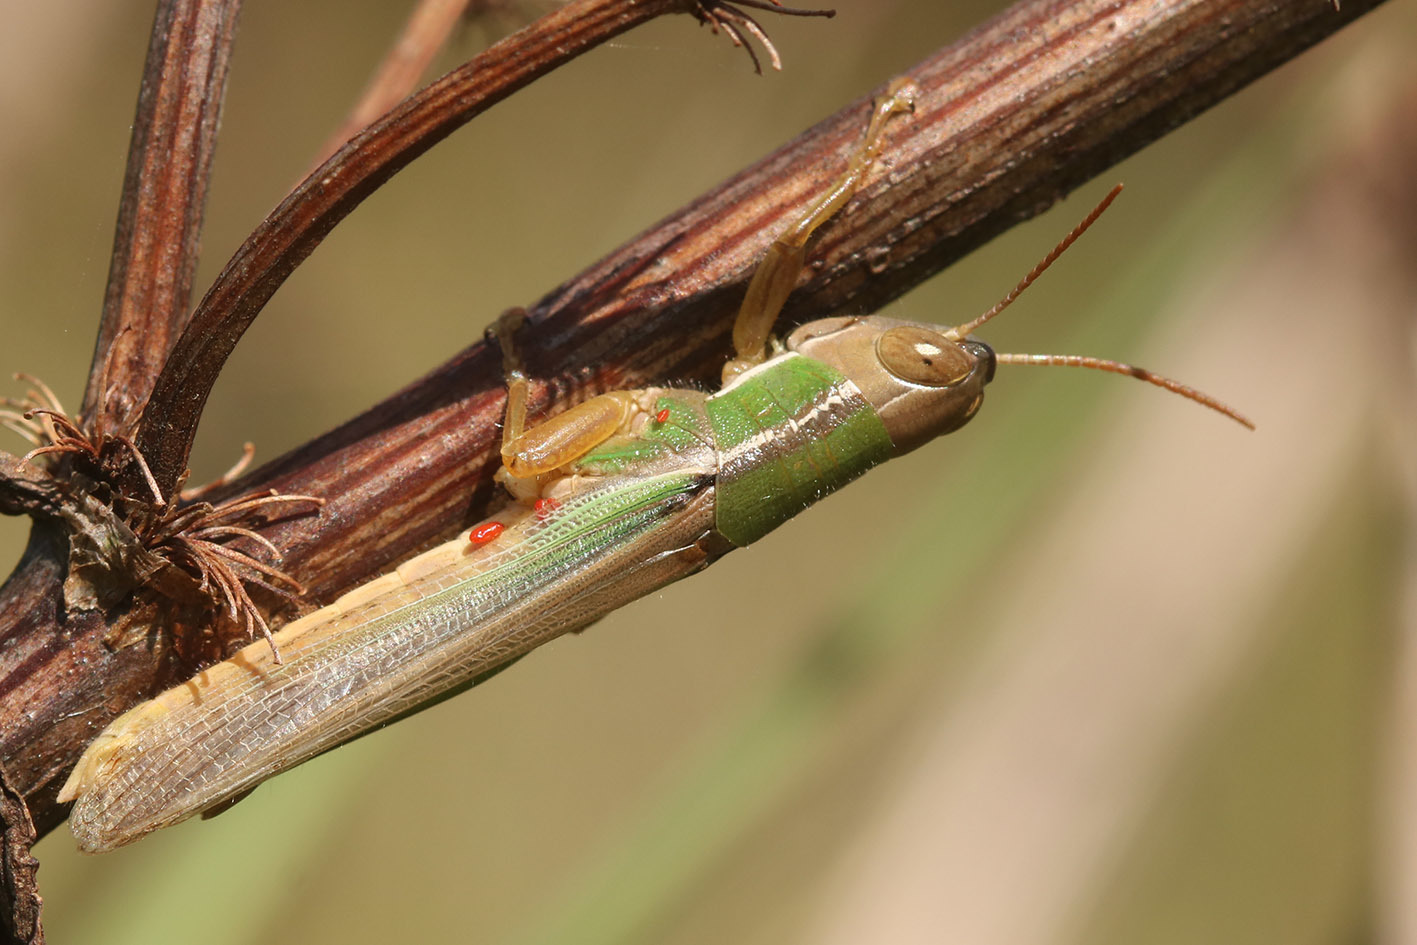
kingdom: Animalia
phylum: Arthropoda
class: Insecta
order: Orthoptera
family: Acrididae
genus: Aleuas
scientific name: Aleuas lineatus
